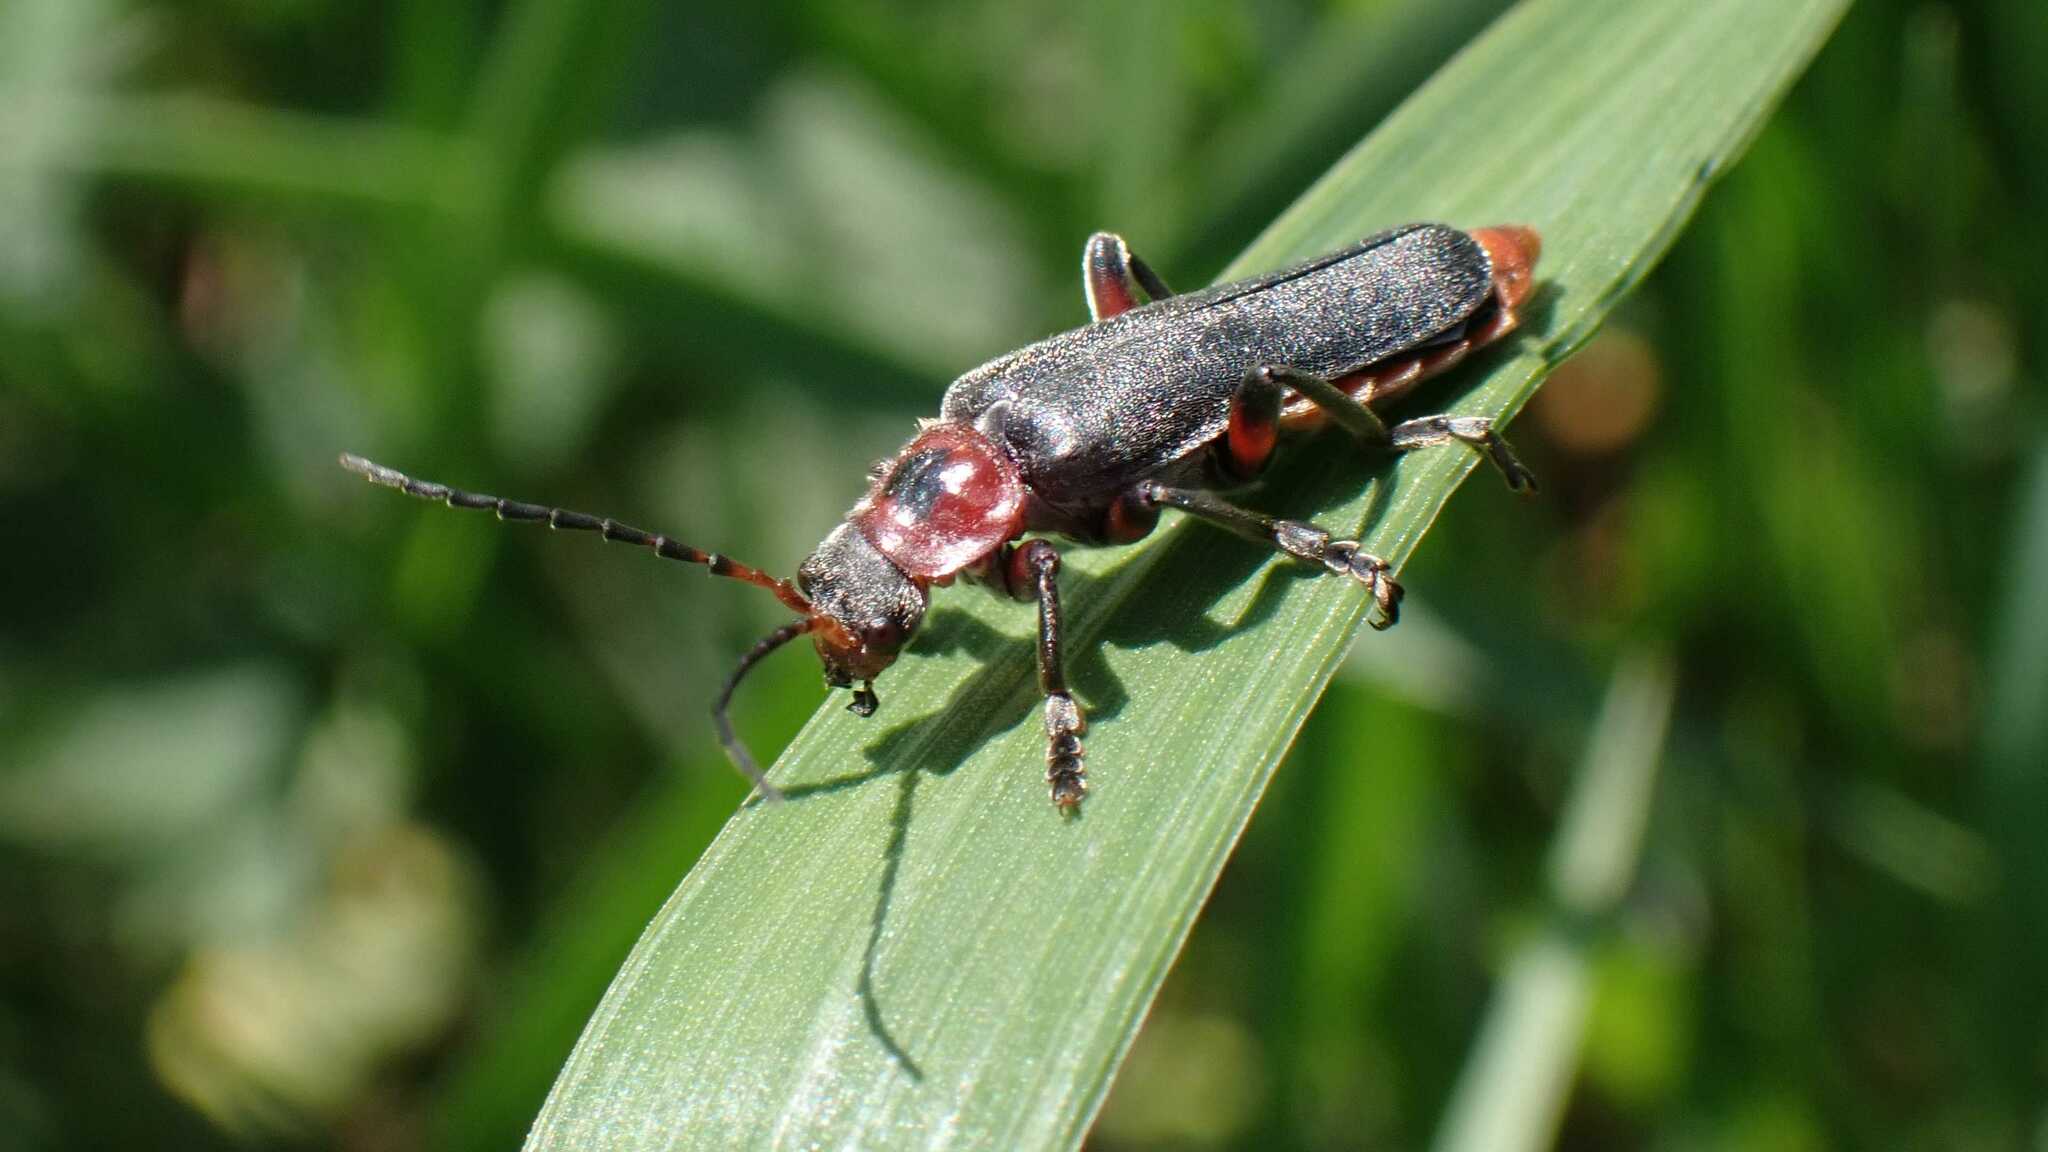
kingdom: Animalia
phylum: Arthropoda
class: Insecta
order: Coleoptera
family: Cantharidae
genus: Cantharis
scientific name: Cantharis rustica
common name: Soldier beetle
